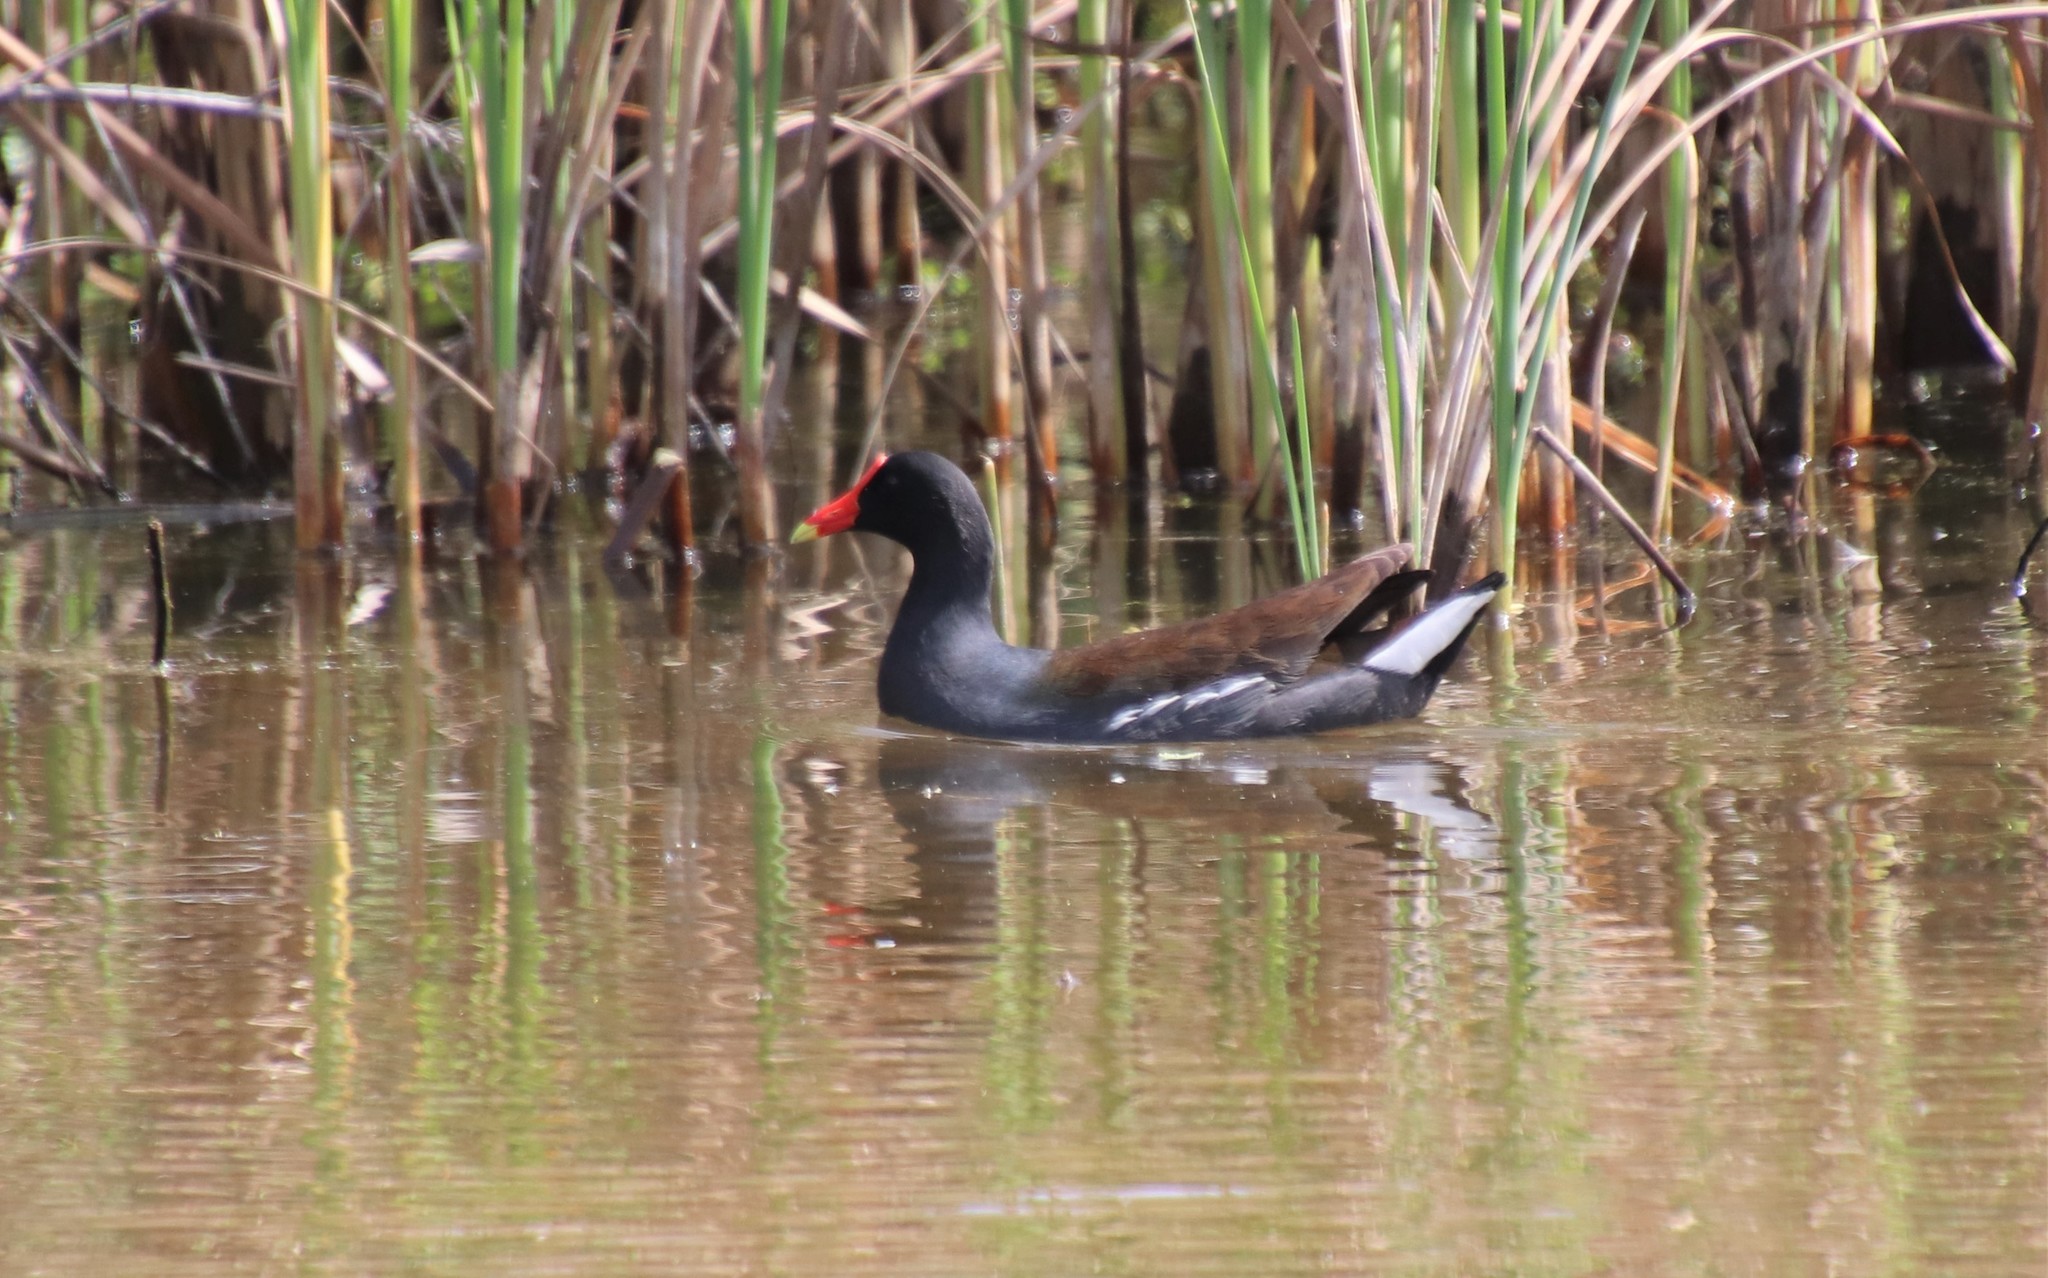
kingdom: Animalia
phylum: Chordata
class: Aves
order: Gruiformes
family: Rallidae
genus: Gallinula
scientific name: Gallinula chloropus
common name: Common moorhen
